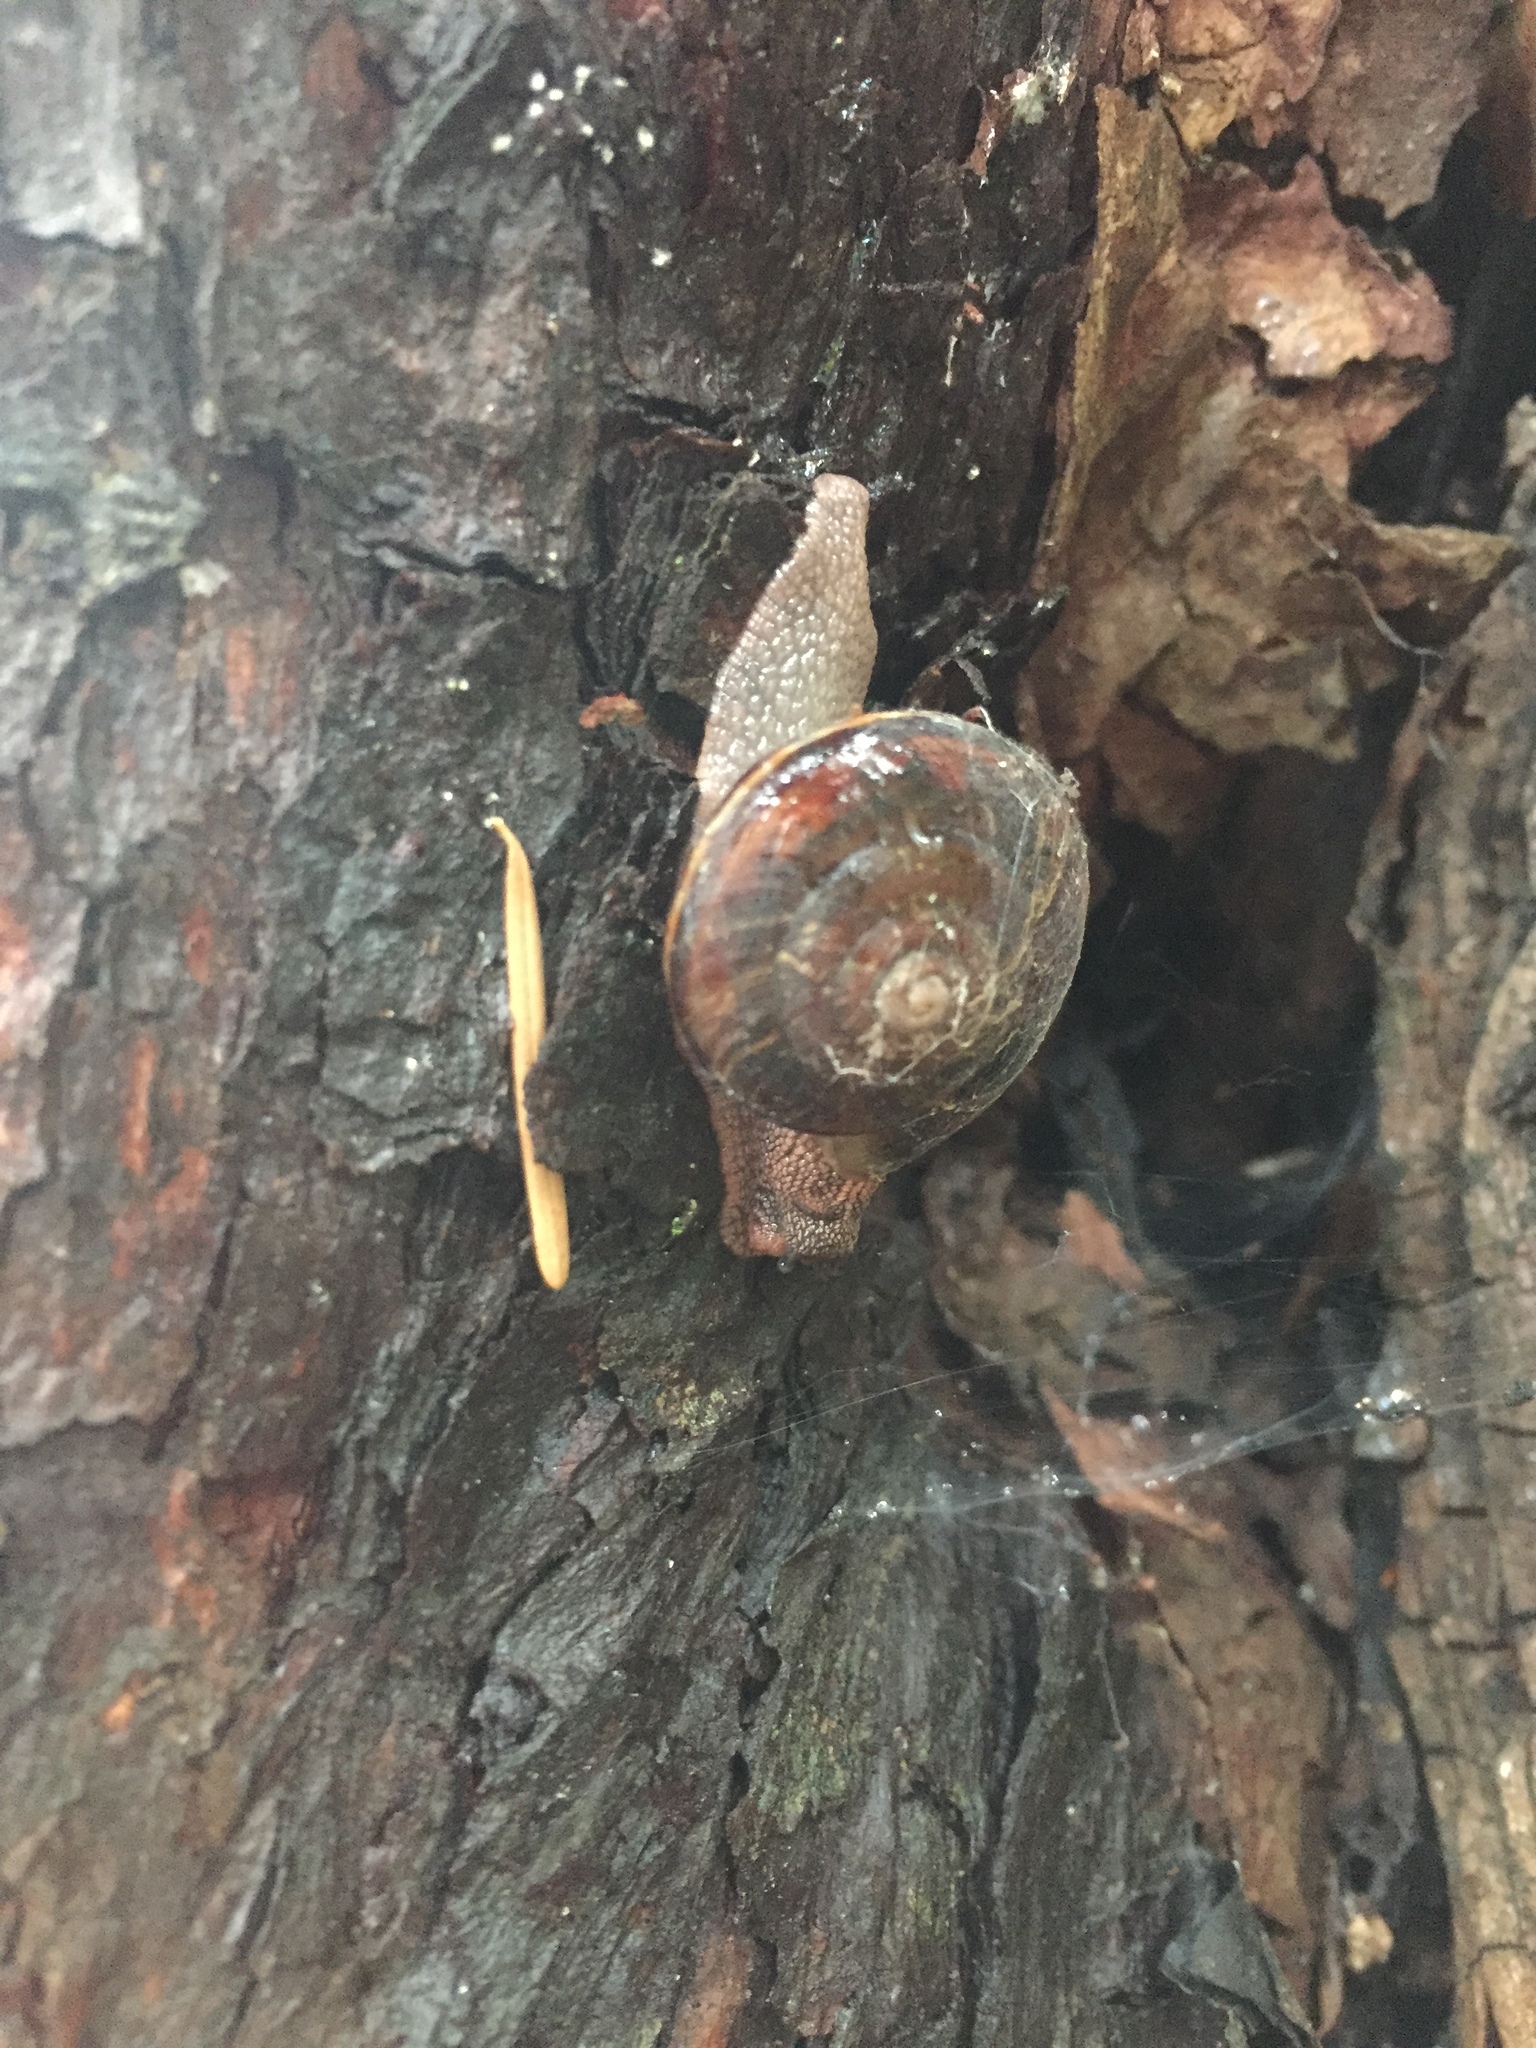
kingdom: Animalia
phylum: Mollusca
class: Gastropoda
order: Stylommatophora
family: Xanthonychidae
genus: Monadenia
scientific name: Monadenia fidelis
